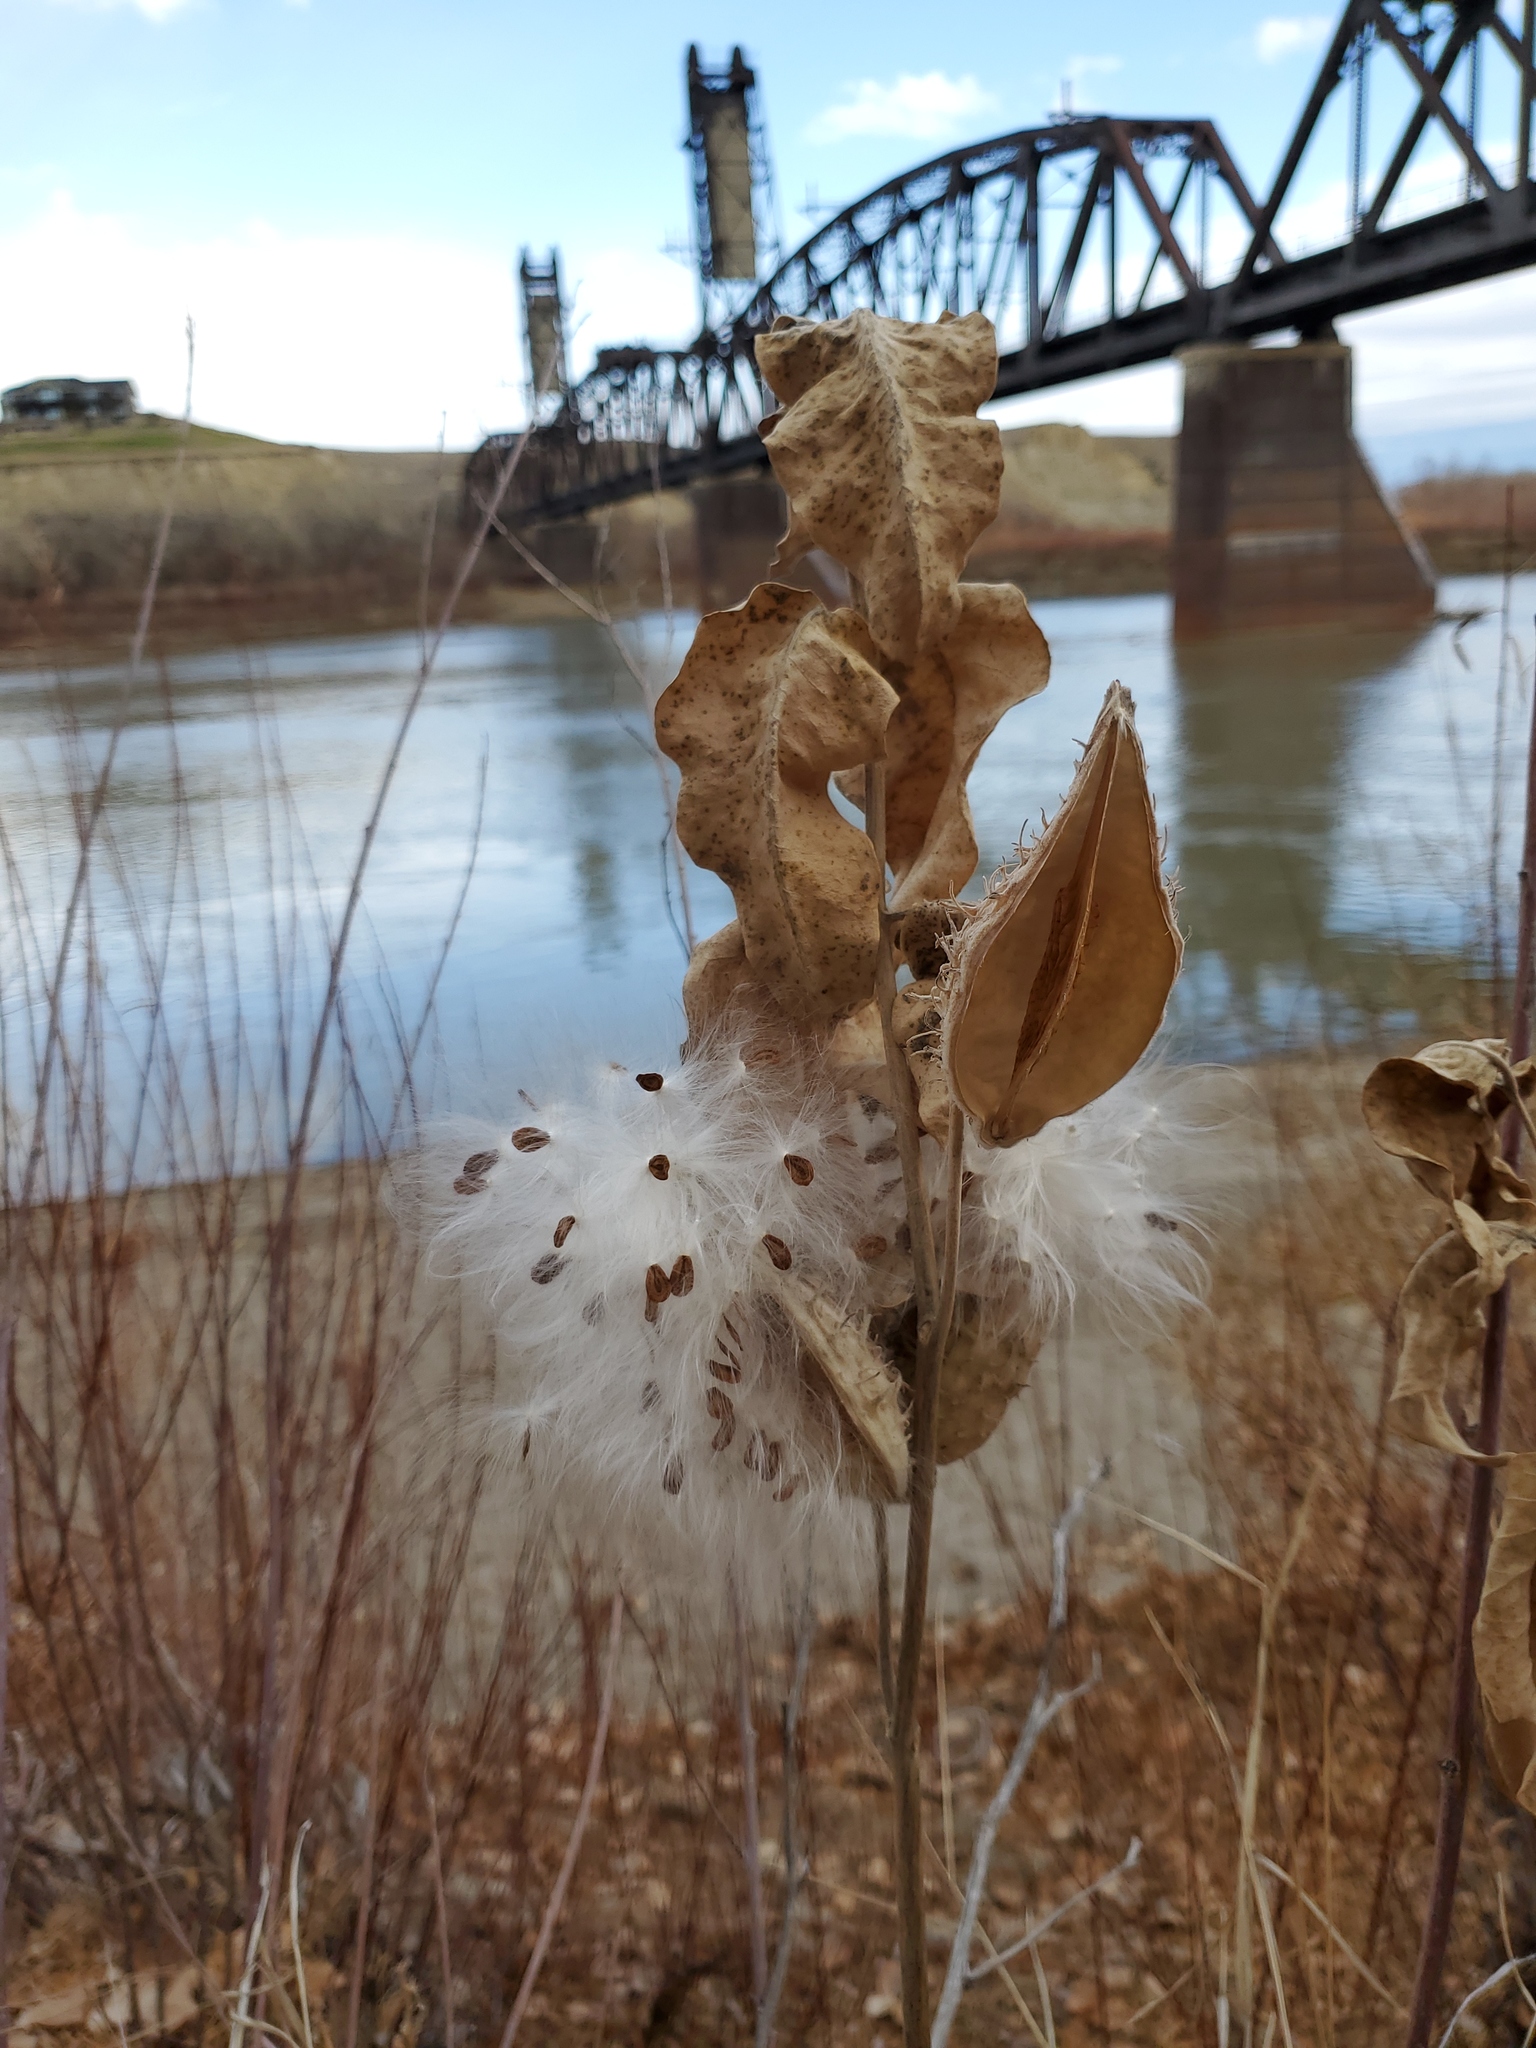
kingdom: Plantae
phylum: Tracheophyta
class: Magnoliopsida
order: Gentianales
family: Apocynaceae
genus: Asclepias
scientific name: Asclepias speciosa
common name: Showy milkweed
